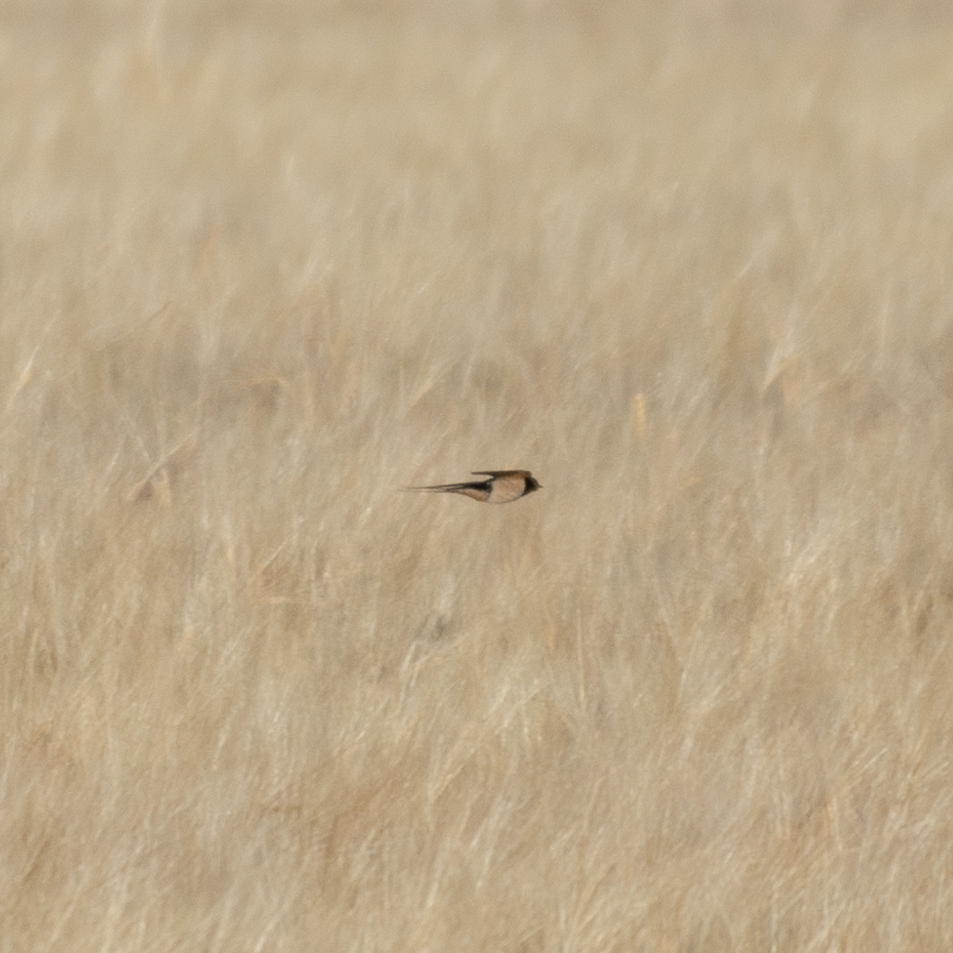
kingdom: Animalia
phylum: Chordata
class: Aves
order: Passeriformes
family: Hirundinidae
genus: Hirundo
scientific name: Hirundo rustica
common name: Barn swallow
